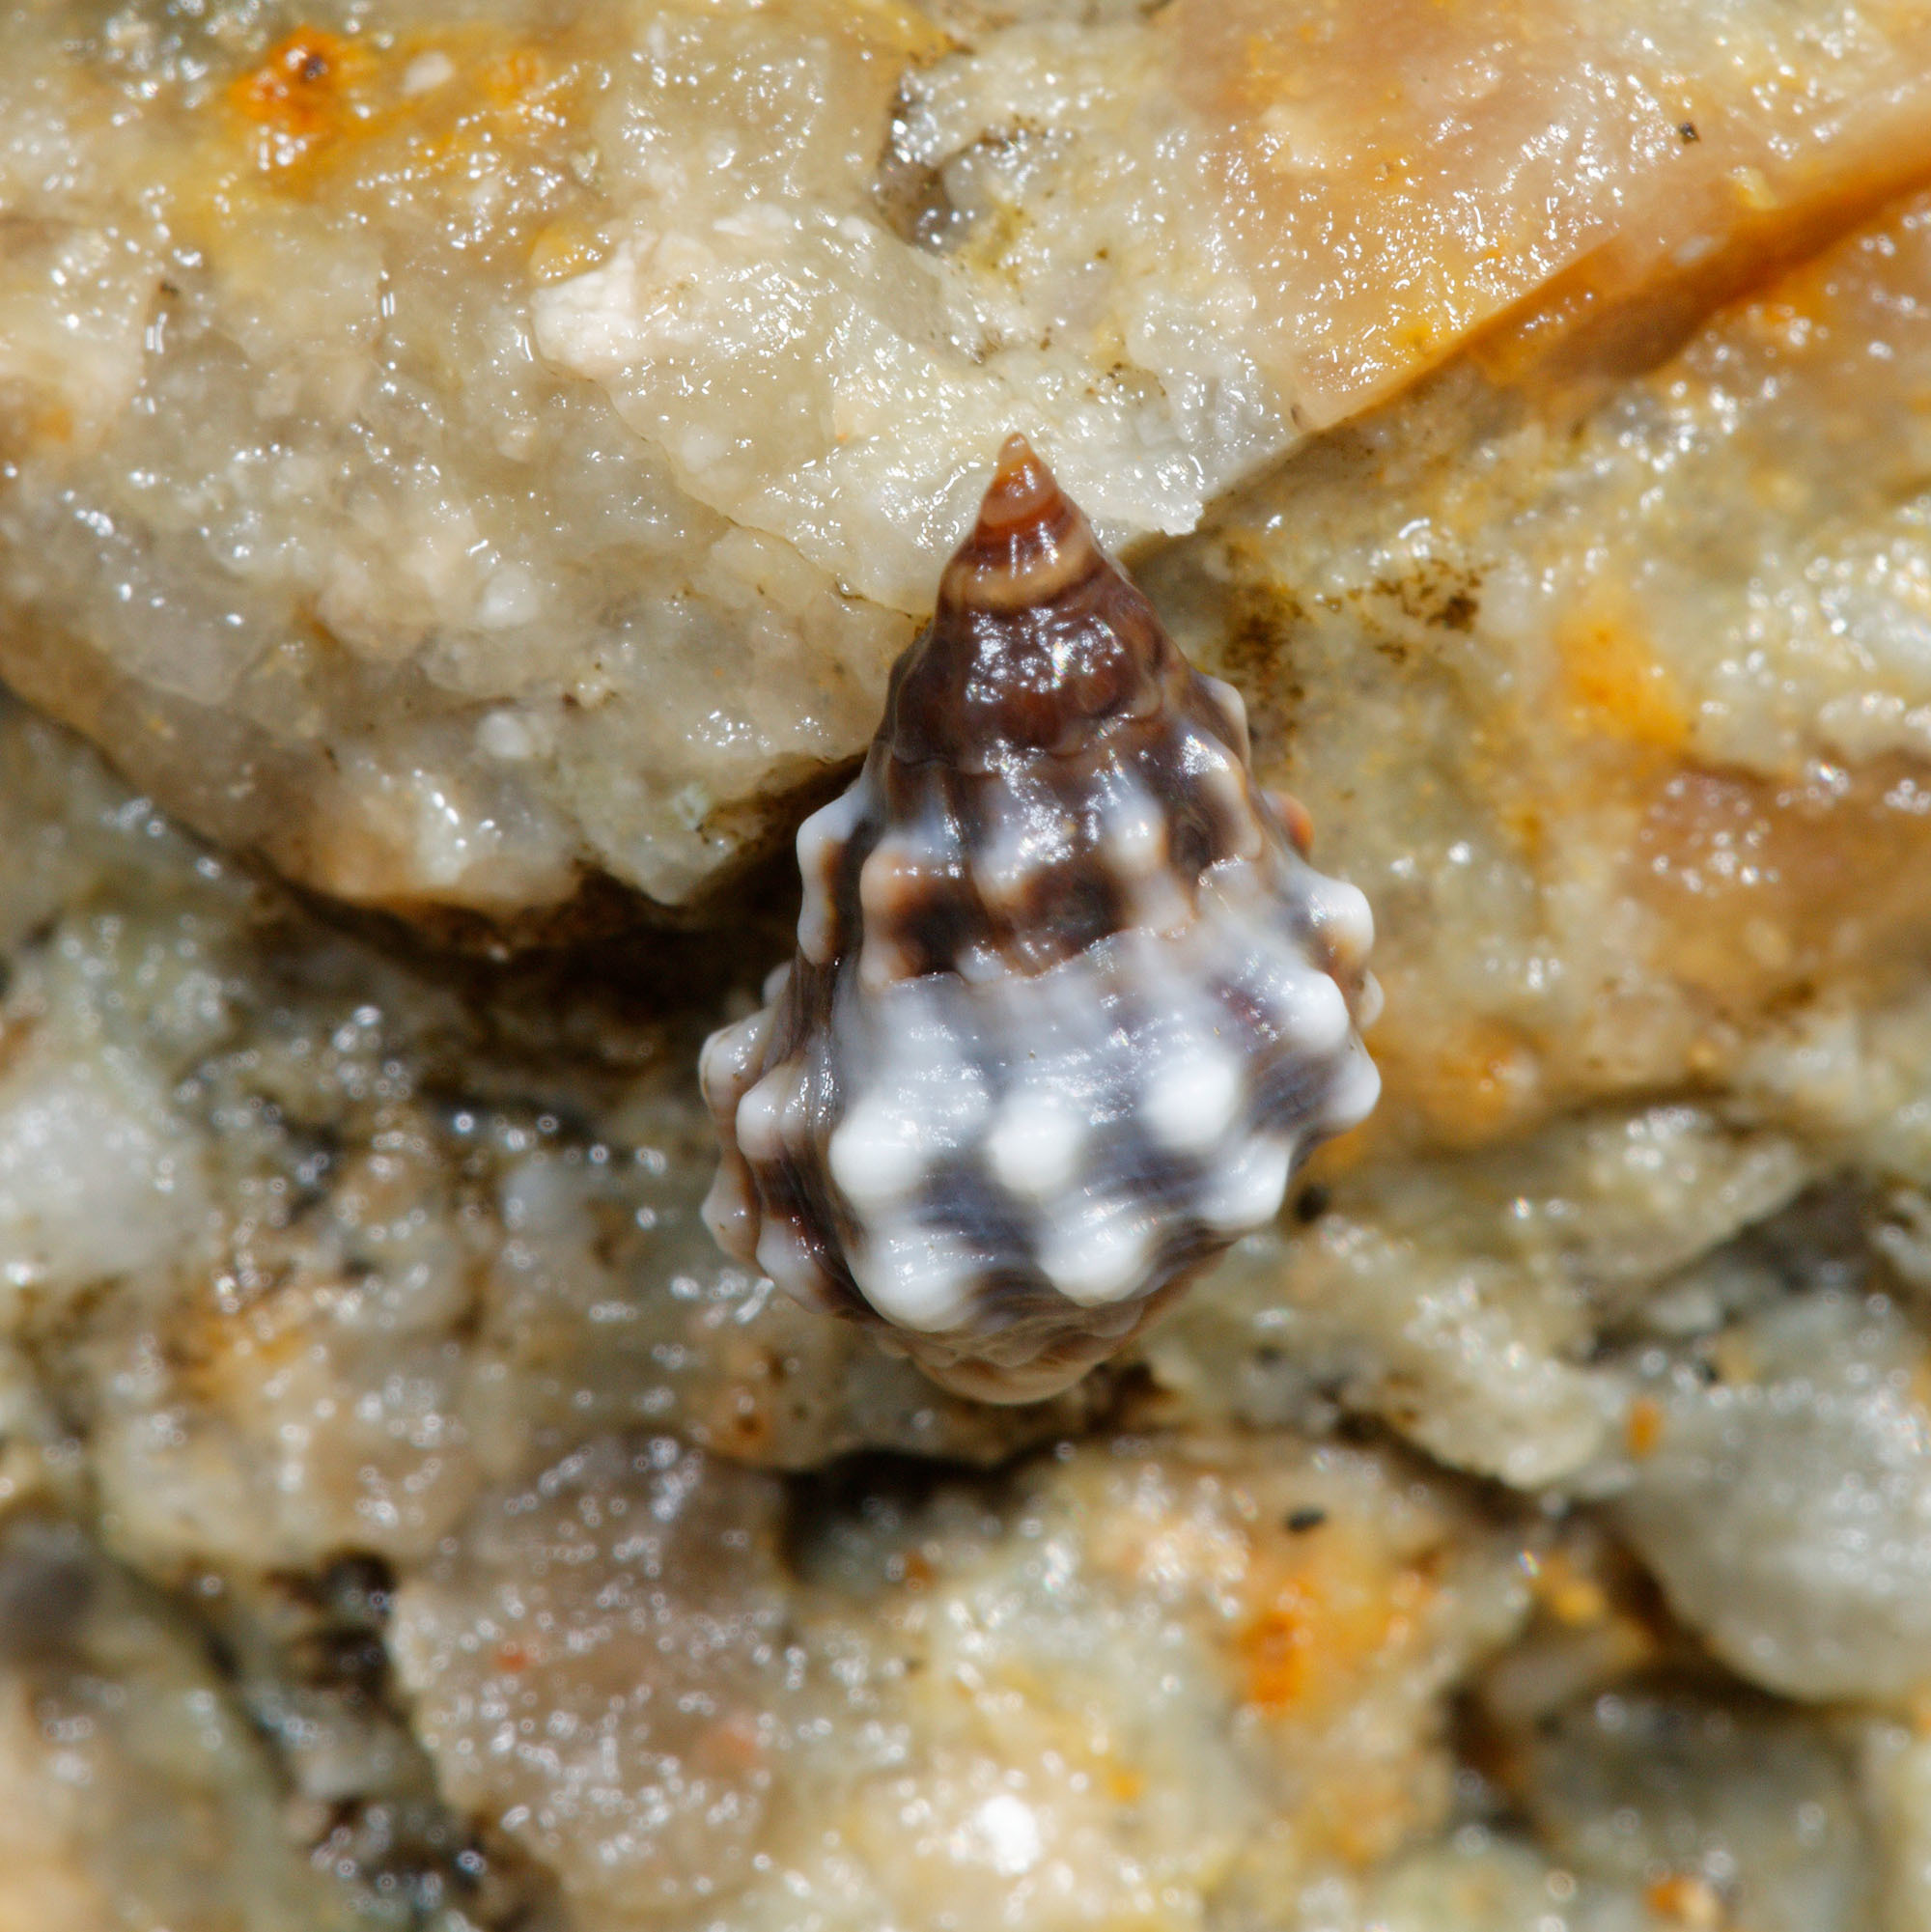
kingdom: Animalia
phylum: Mollusca
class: Gastropoda
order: Littorinimorpha
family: Littorinidae
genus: Echinolittorina
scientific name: Echinolittorina pascua
